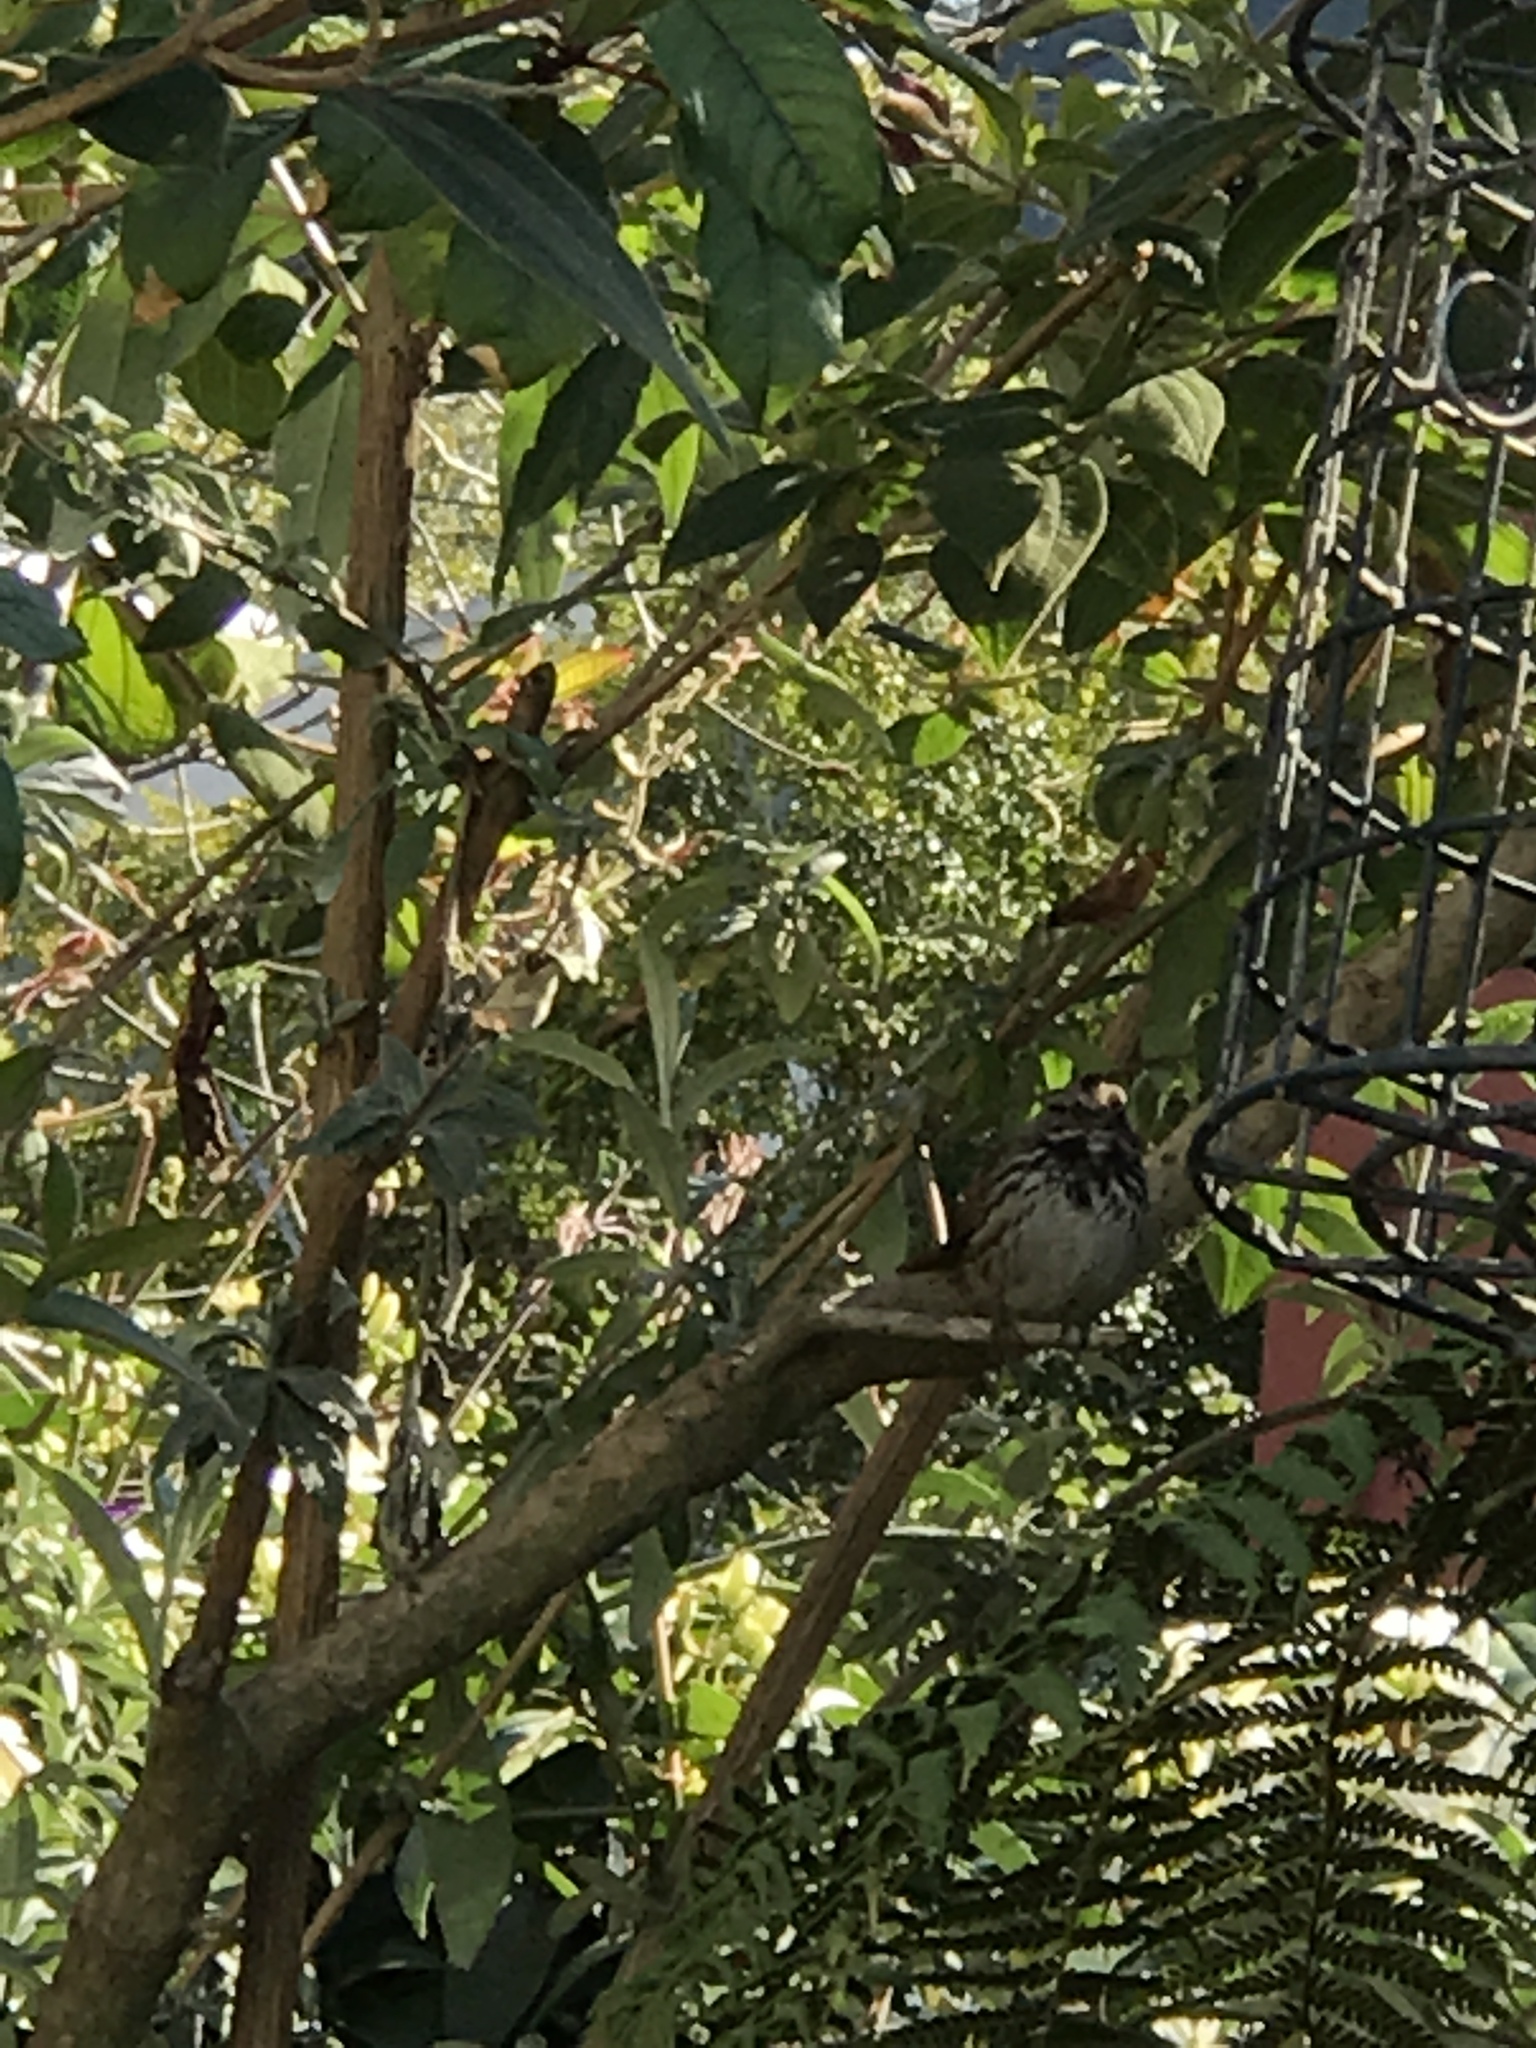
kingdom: Animalia
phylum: Chordata
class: Aves
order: Passeriformes
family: Passerellidae
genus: Melospiza
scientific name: Melospiza melodia
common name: Song sparrow
